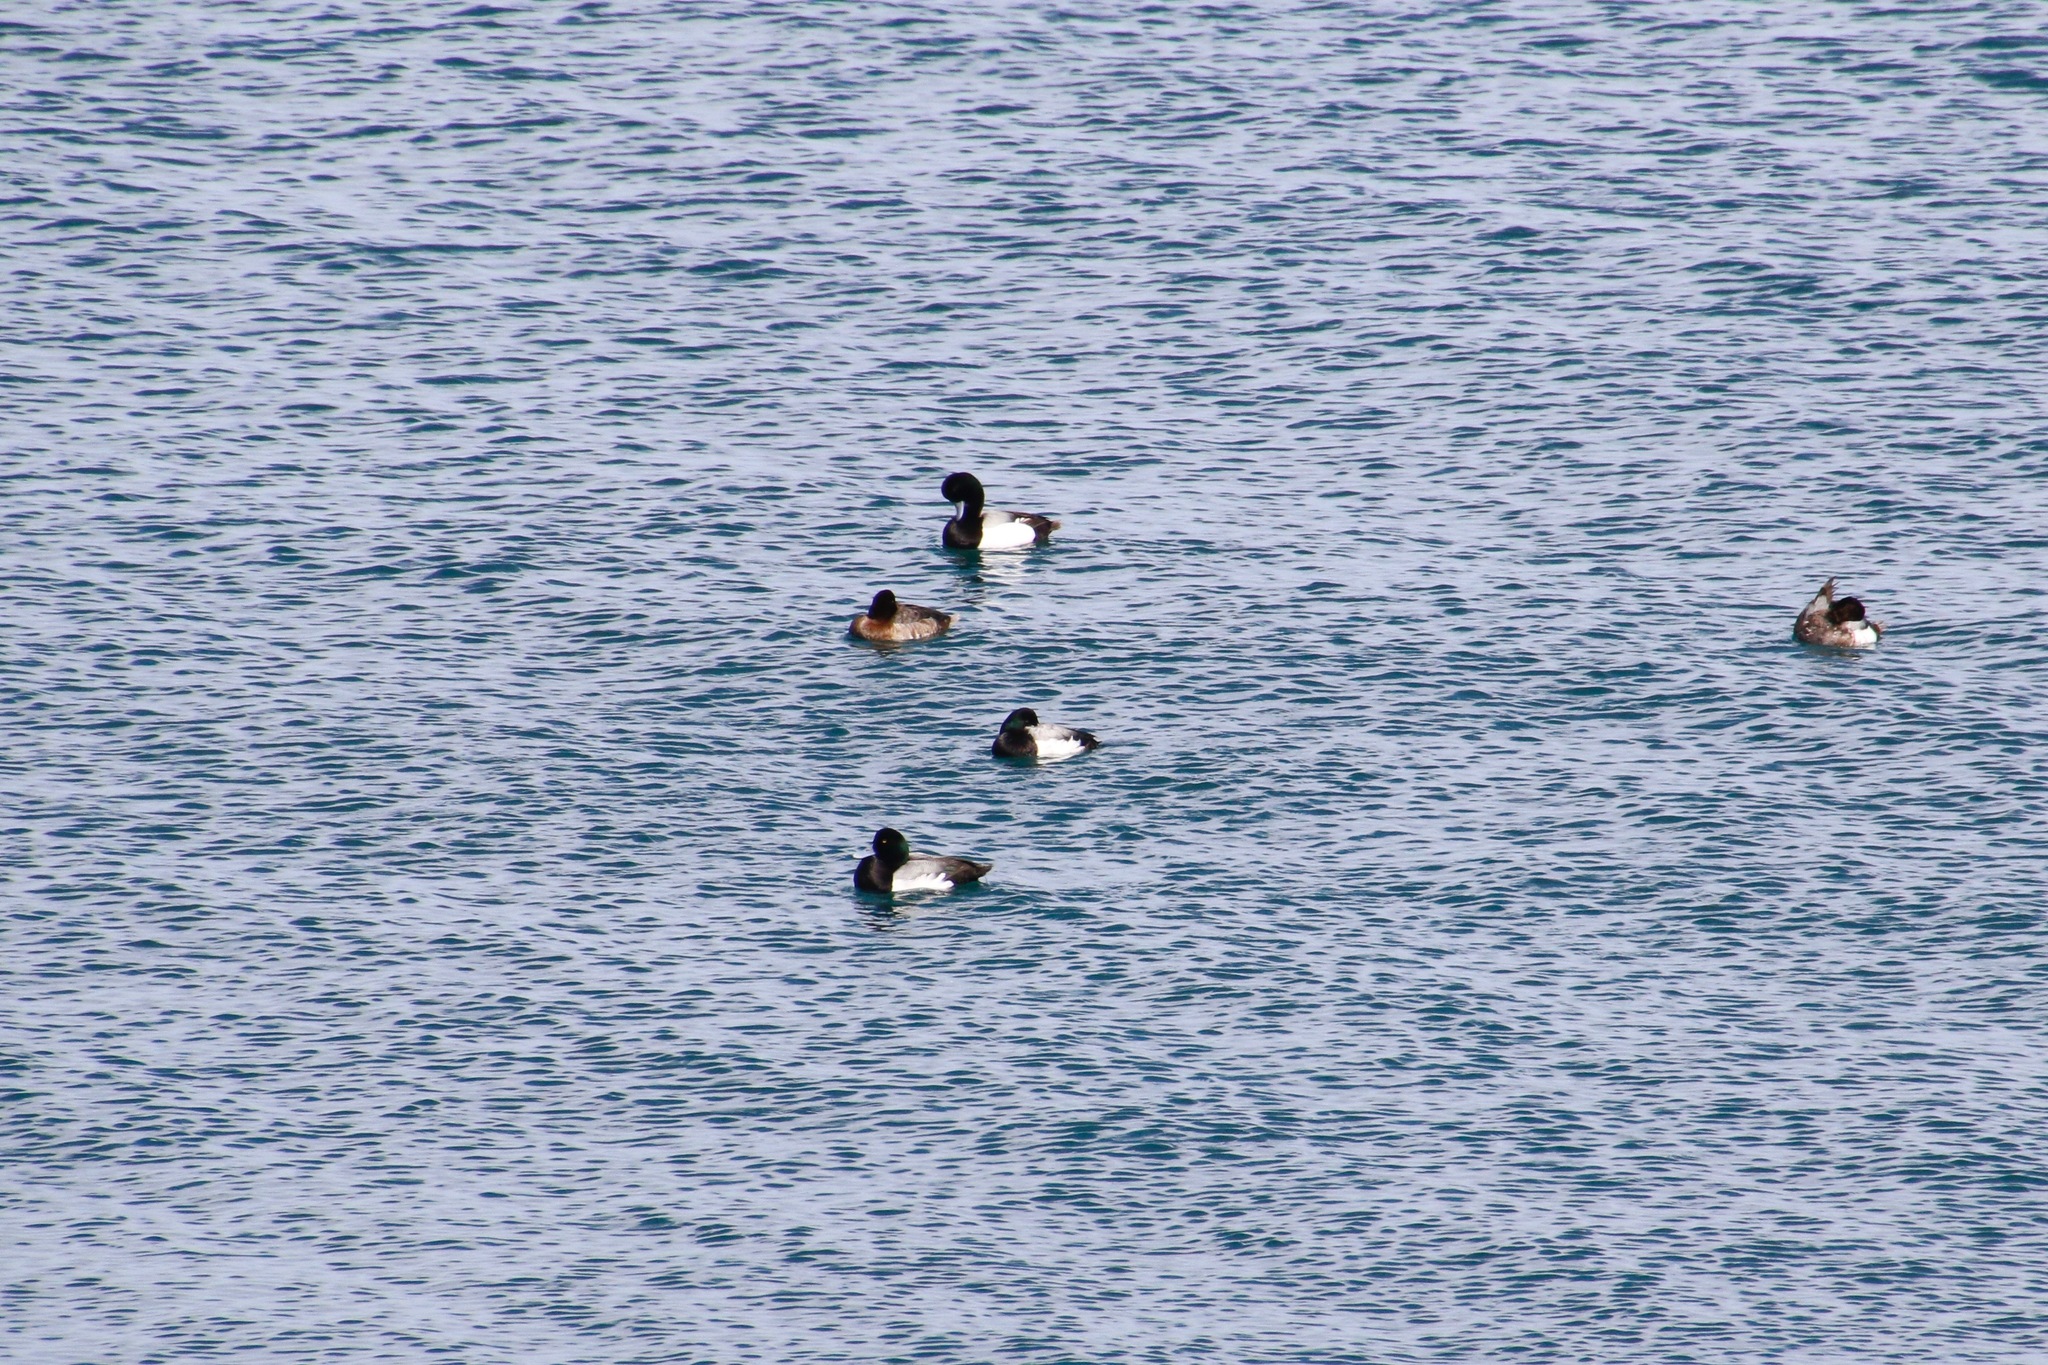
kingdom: Animalia
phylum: Chordata
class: Aves
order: Anseriformes
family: Anatidae
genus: Aythya
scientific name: Aythya marila
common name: Greater scaup
